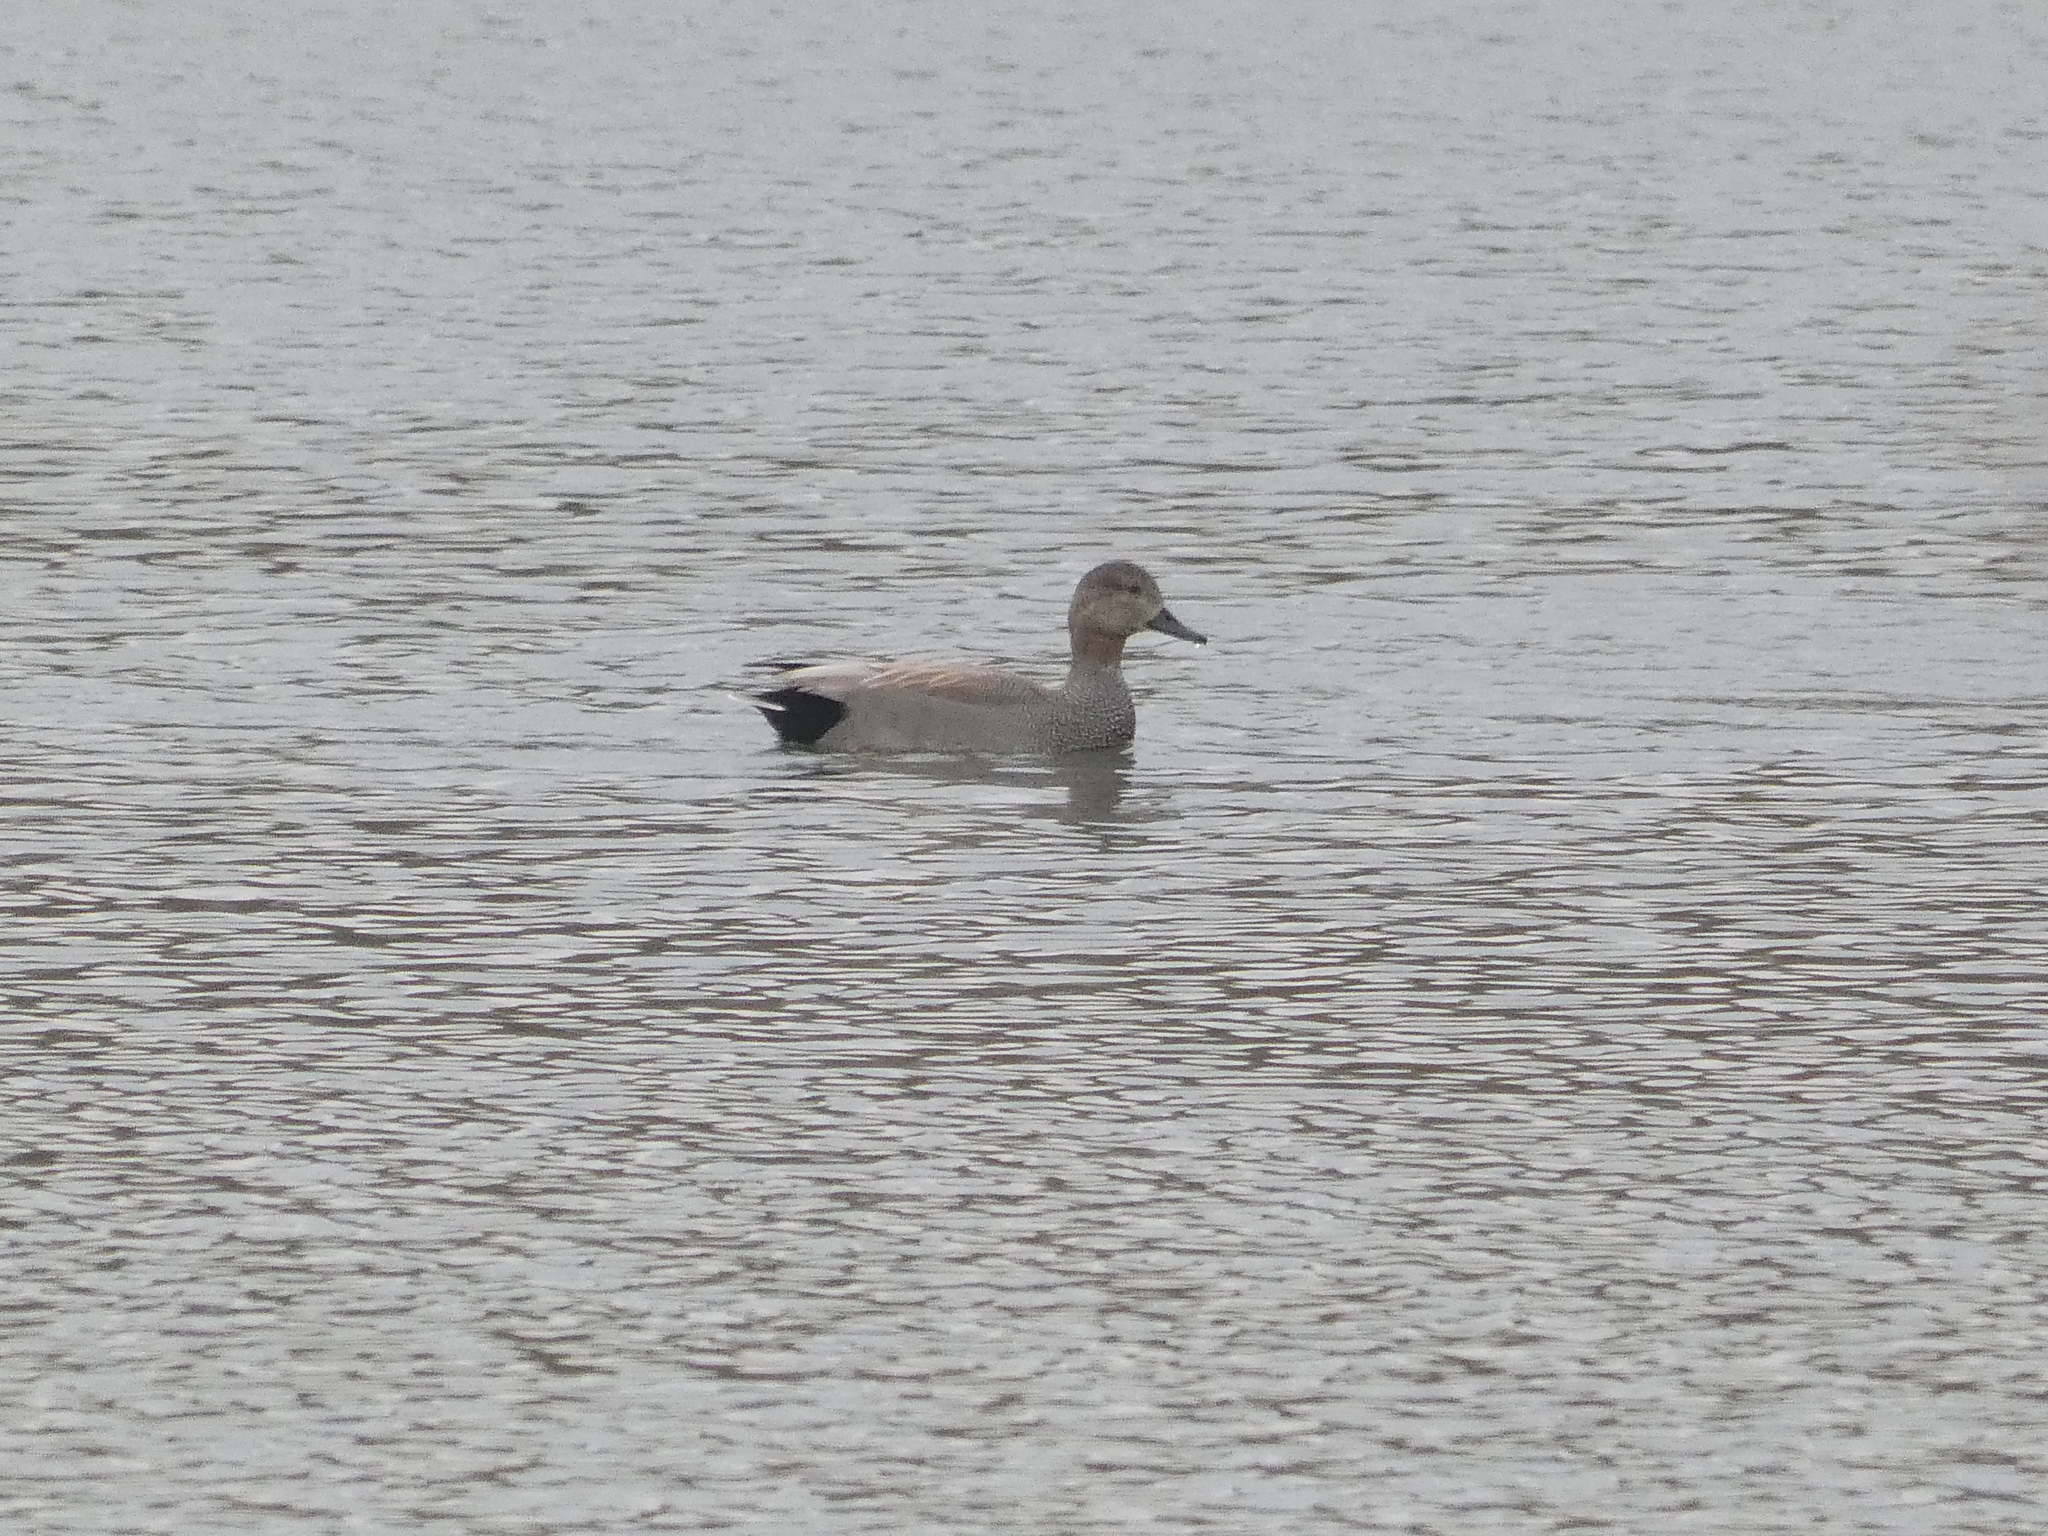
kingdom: Animalia
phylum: Chordata
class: Aves
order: Anseriformes
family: Anatidae
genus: Mareca
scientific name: Mareca strepera
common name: Gadwall
